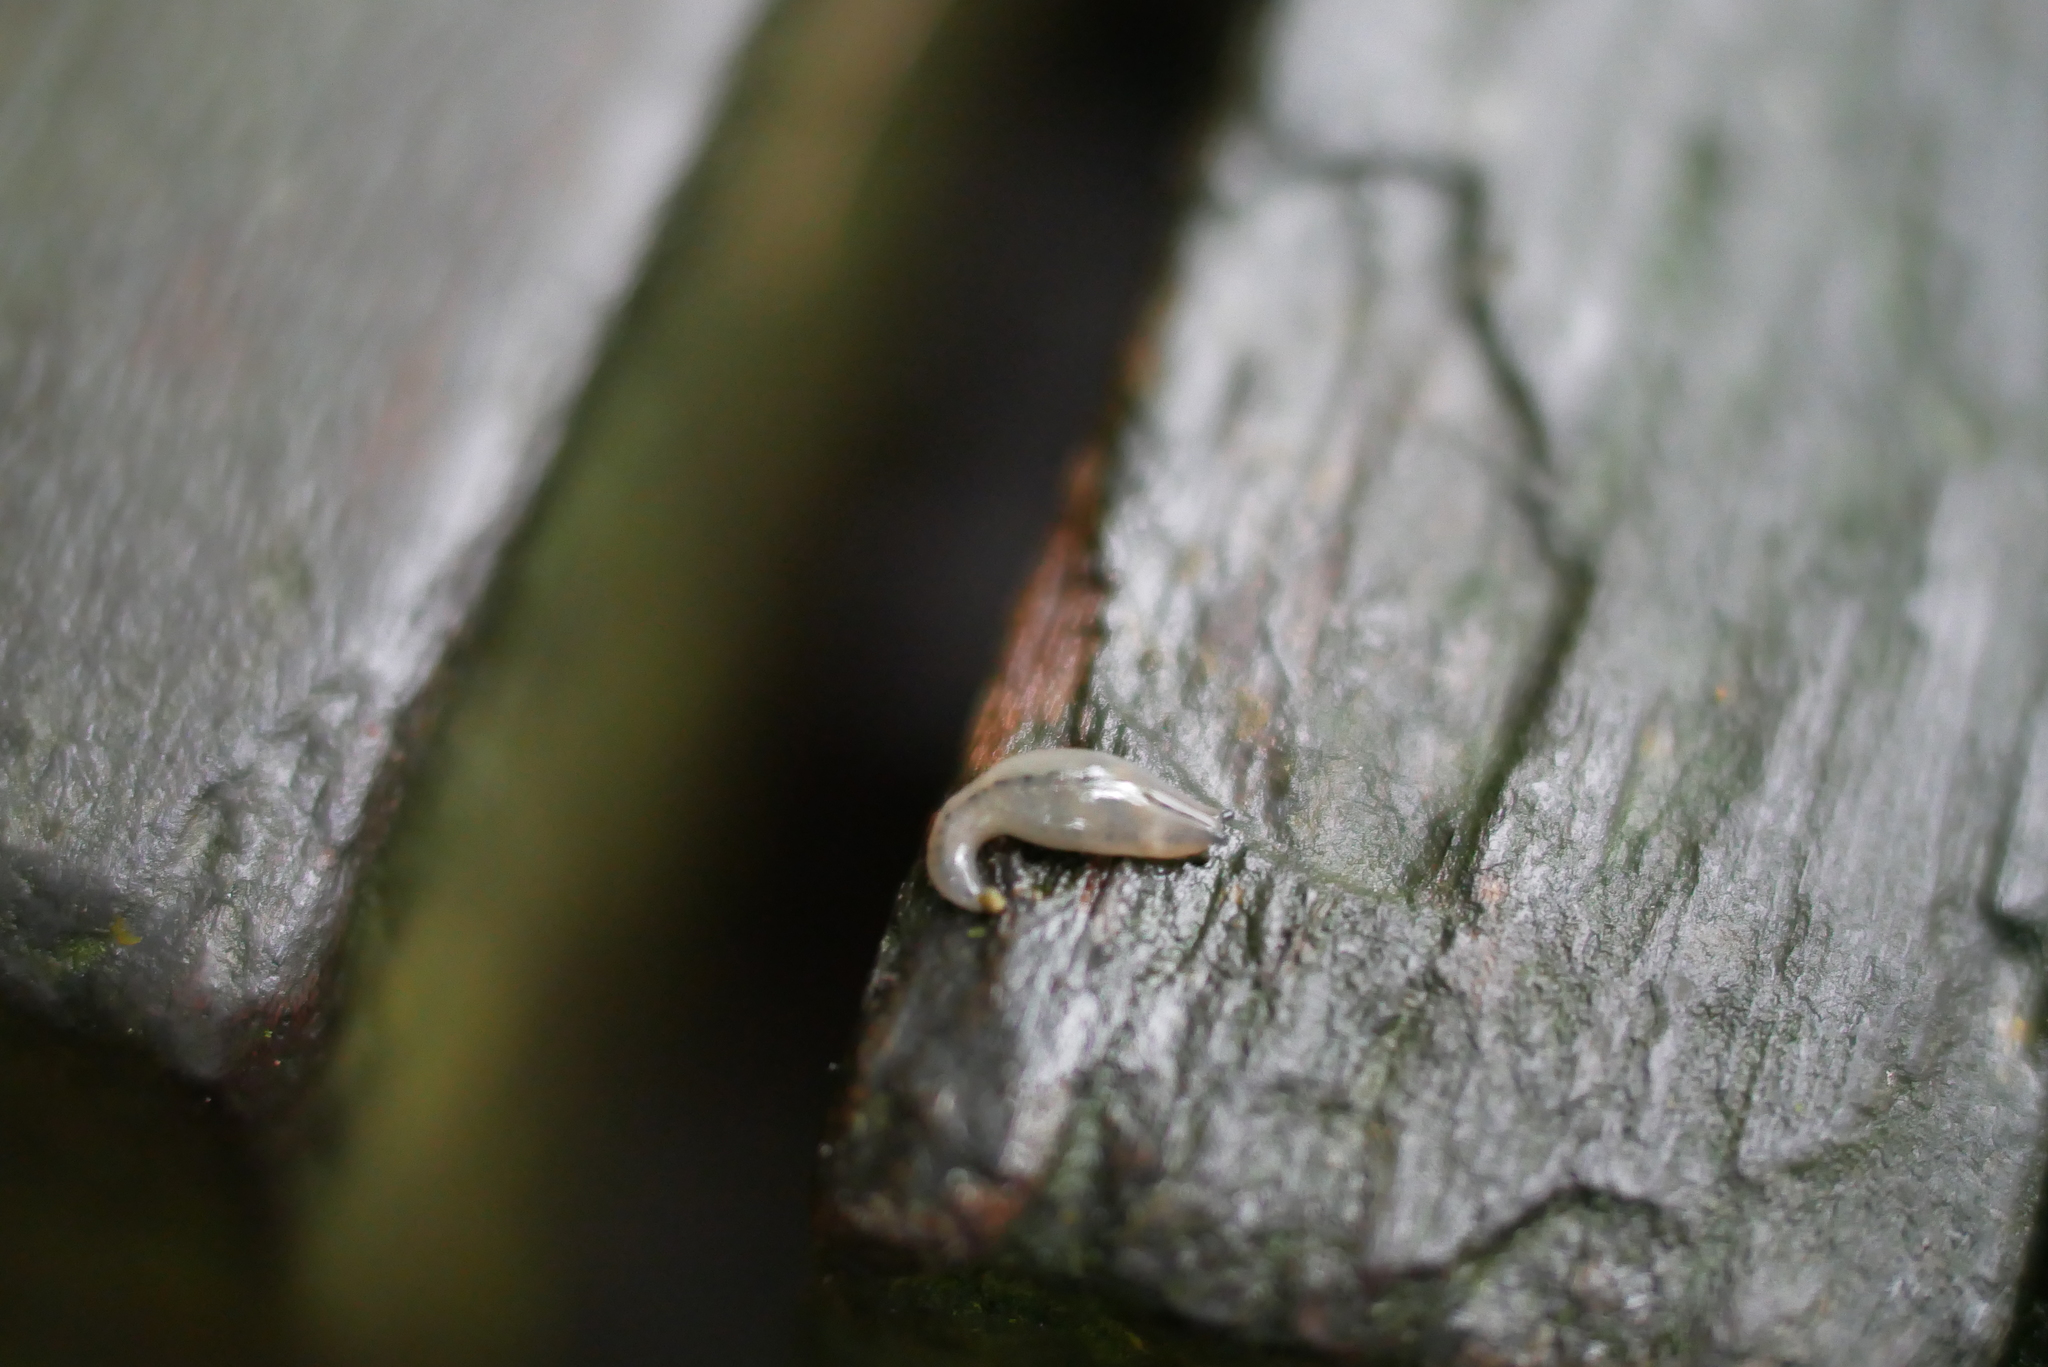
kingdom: Animalia
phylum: Mollusca
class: Gastropoda
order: Stylommatophora
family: Philomycidae
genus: Meghimatium
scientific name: Meghimatium bilineatum
